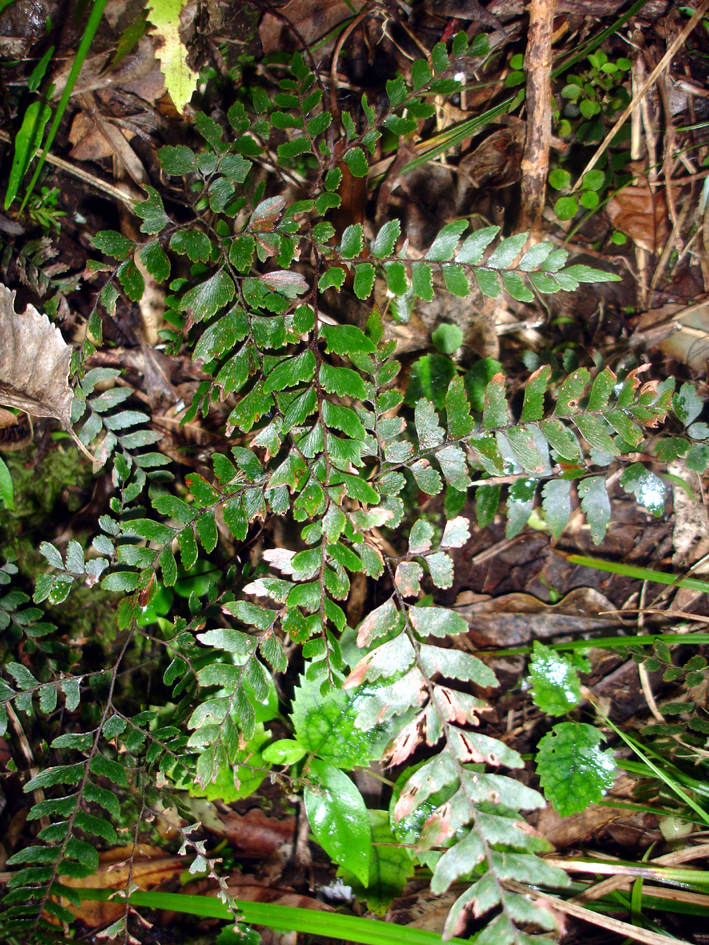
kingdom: Plantae
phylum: Tracheophyta
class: Polypodiopsida
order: Polypodiales
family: Pteridaceae
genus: Adiantum
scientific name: Adiantum fulvum
